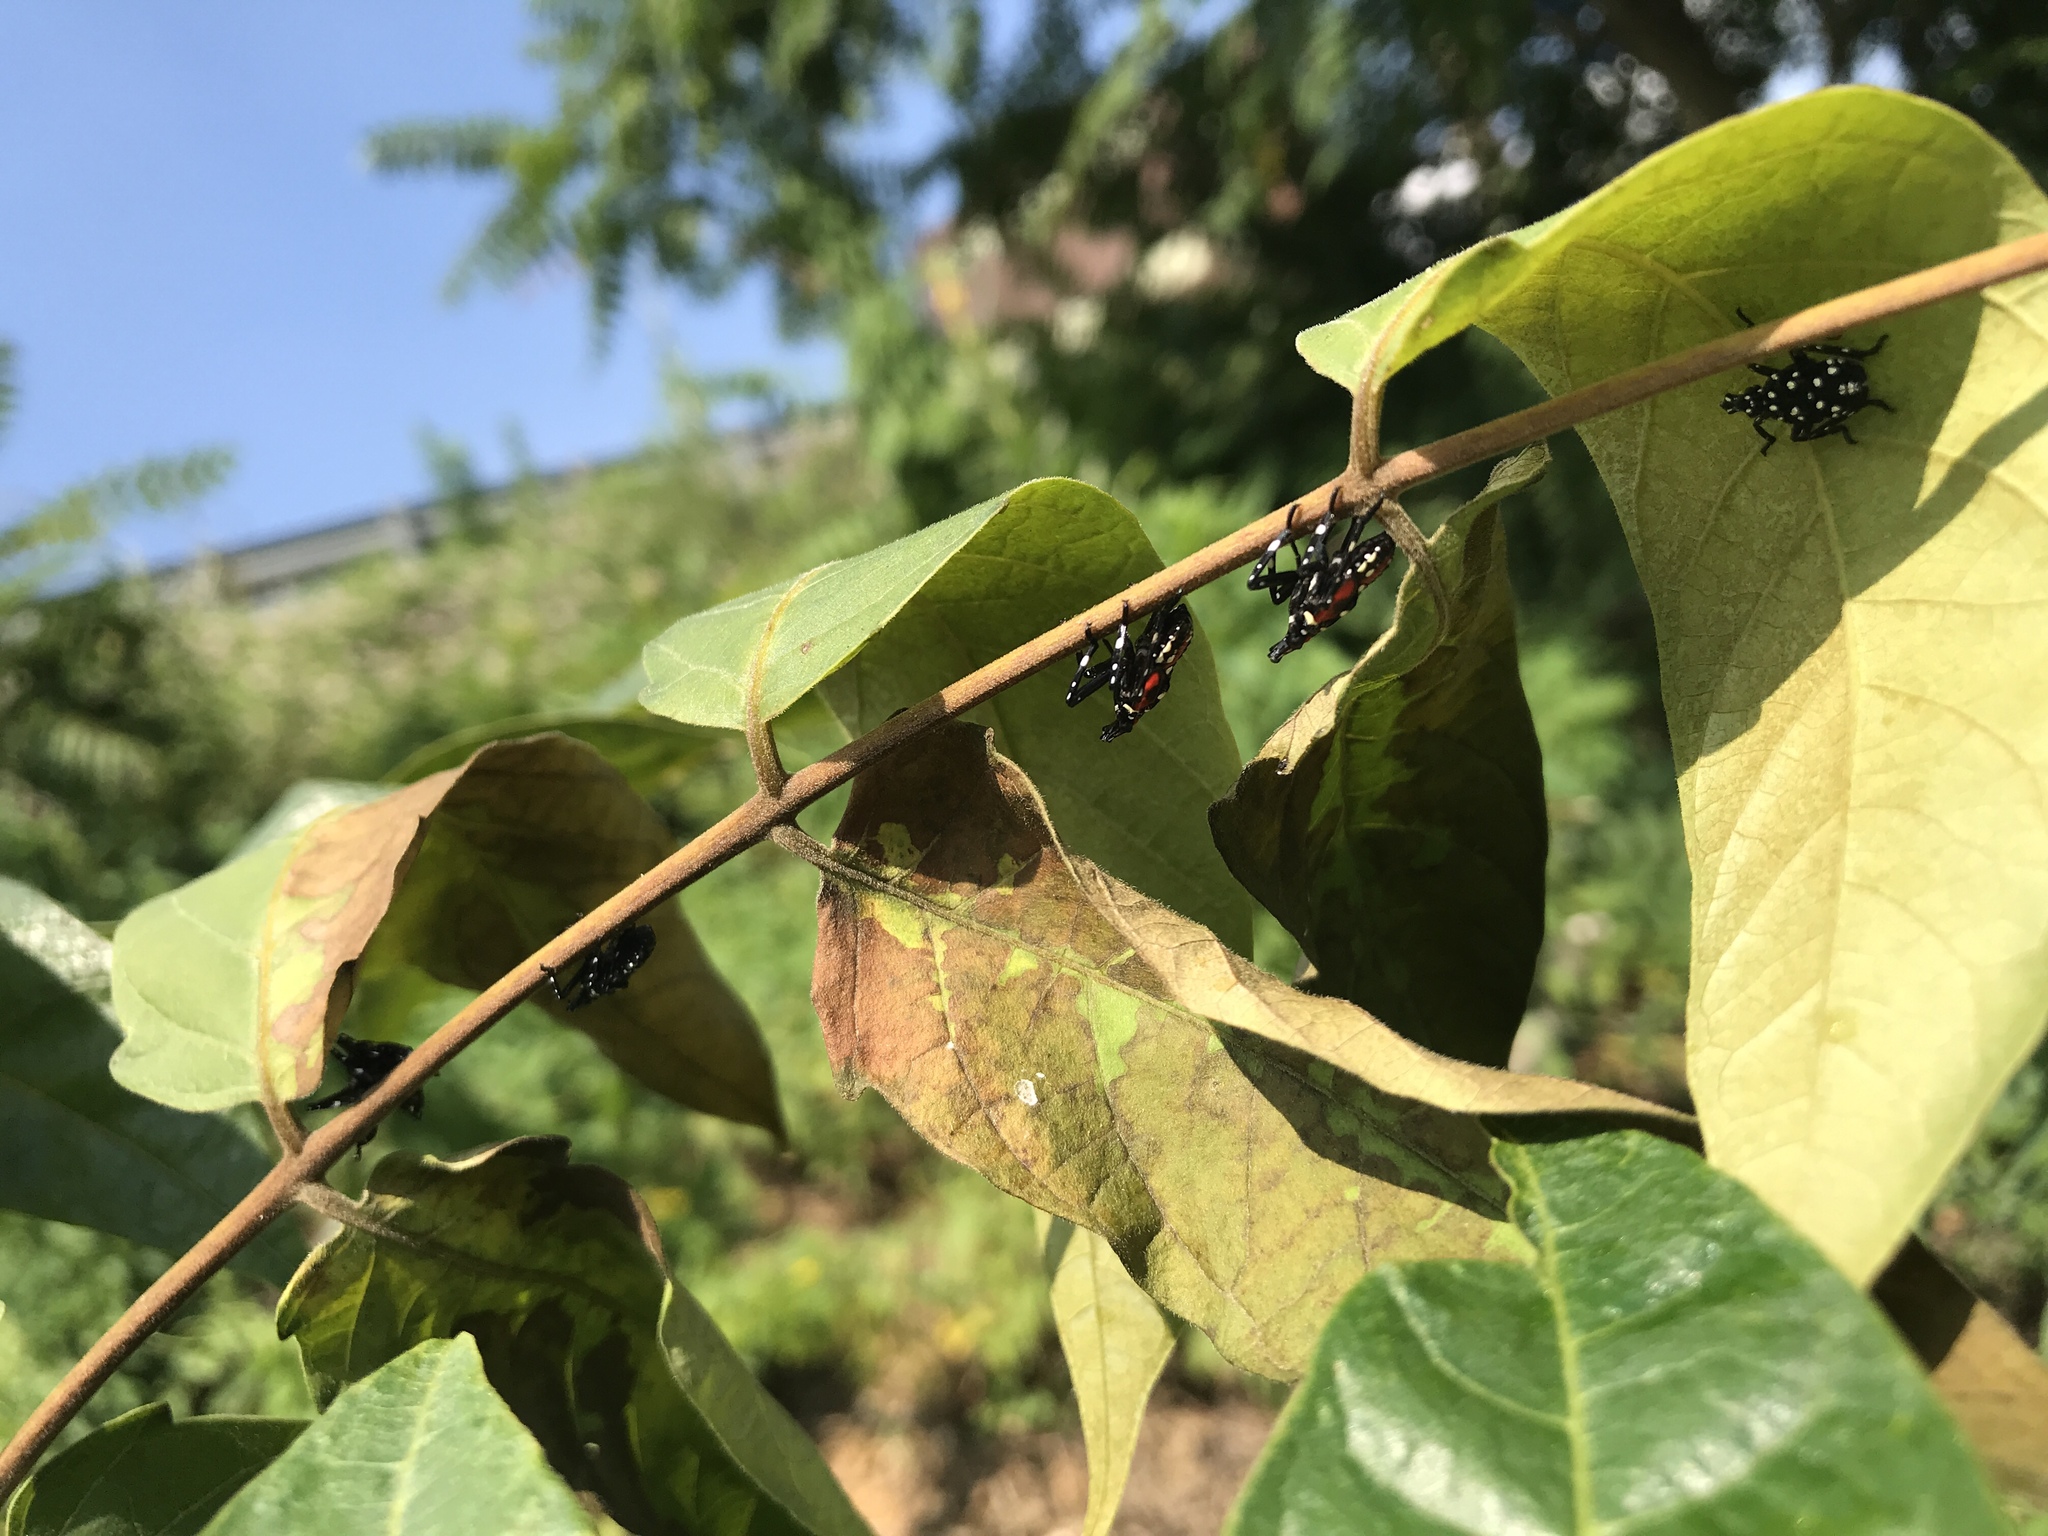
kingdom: Animalia
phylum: Arthropoda
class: Insecta
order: Hemiptera
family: Fulgoridae
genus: Lycorma
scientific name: Lycorma delicatula
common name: Spotted lanternfly
